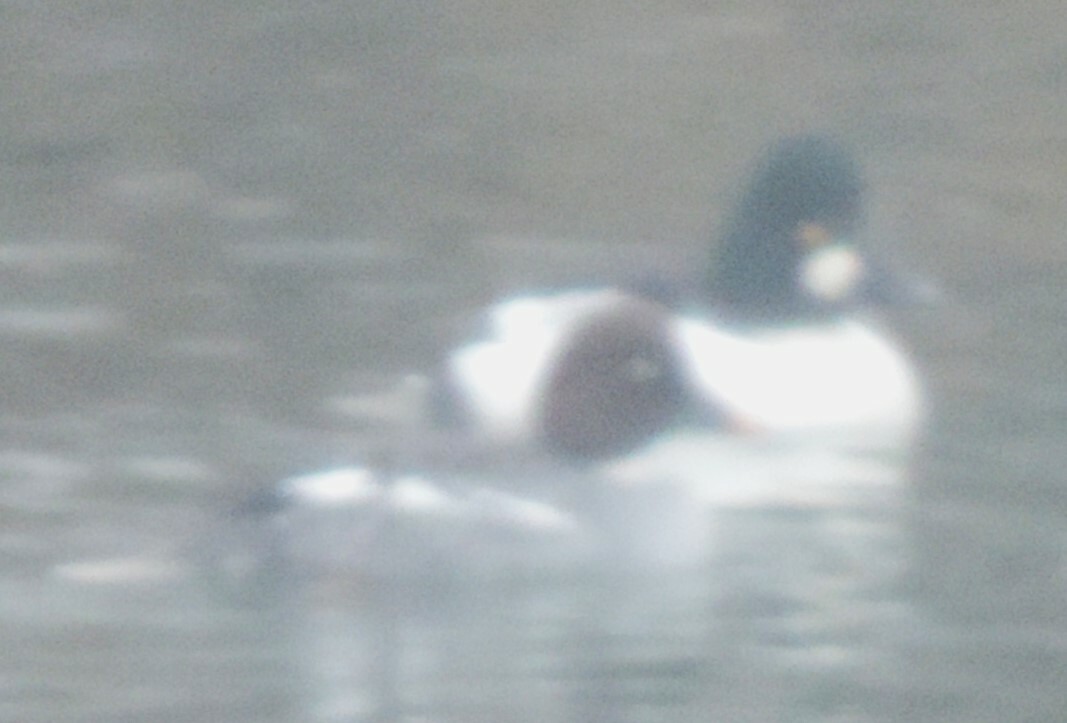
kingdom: Animalia
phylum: Chordata
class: Aves
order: Anseriformes
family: Anatidae
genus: Bucephala
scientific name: Bucephala clangula
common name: Common goldeneye
